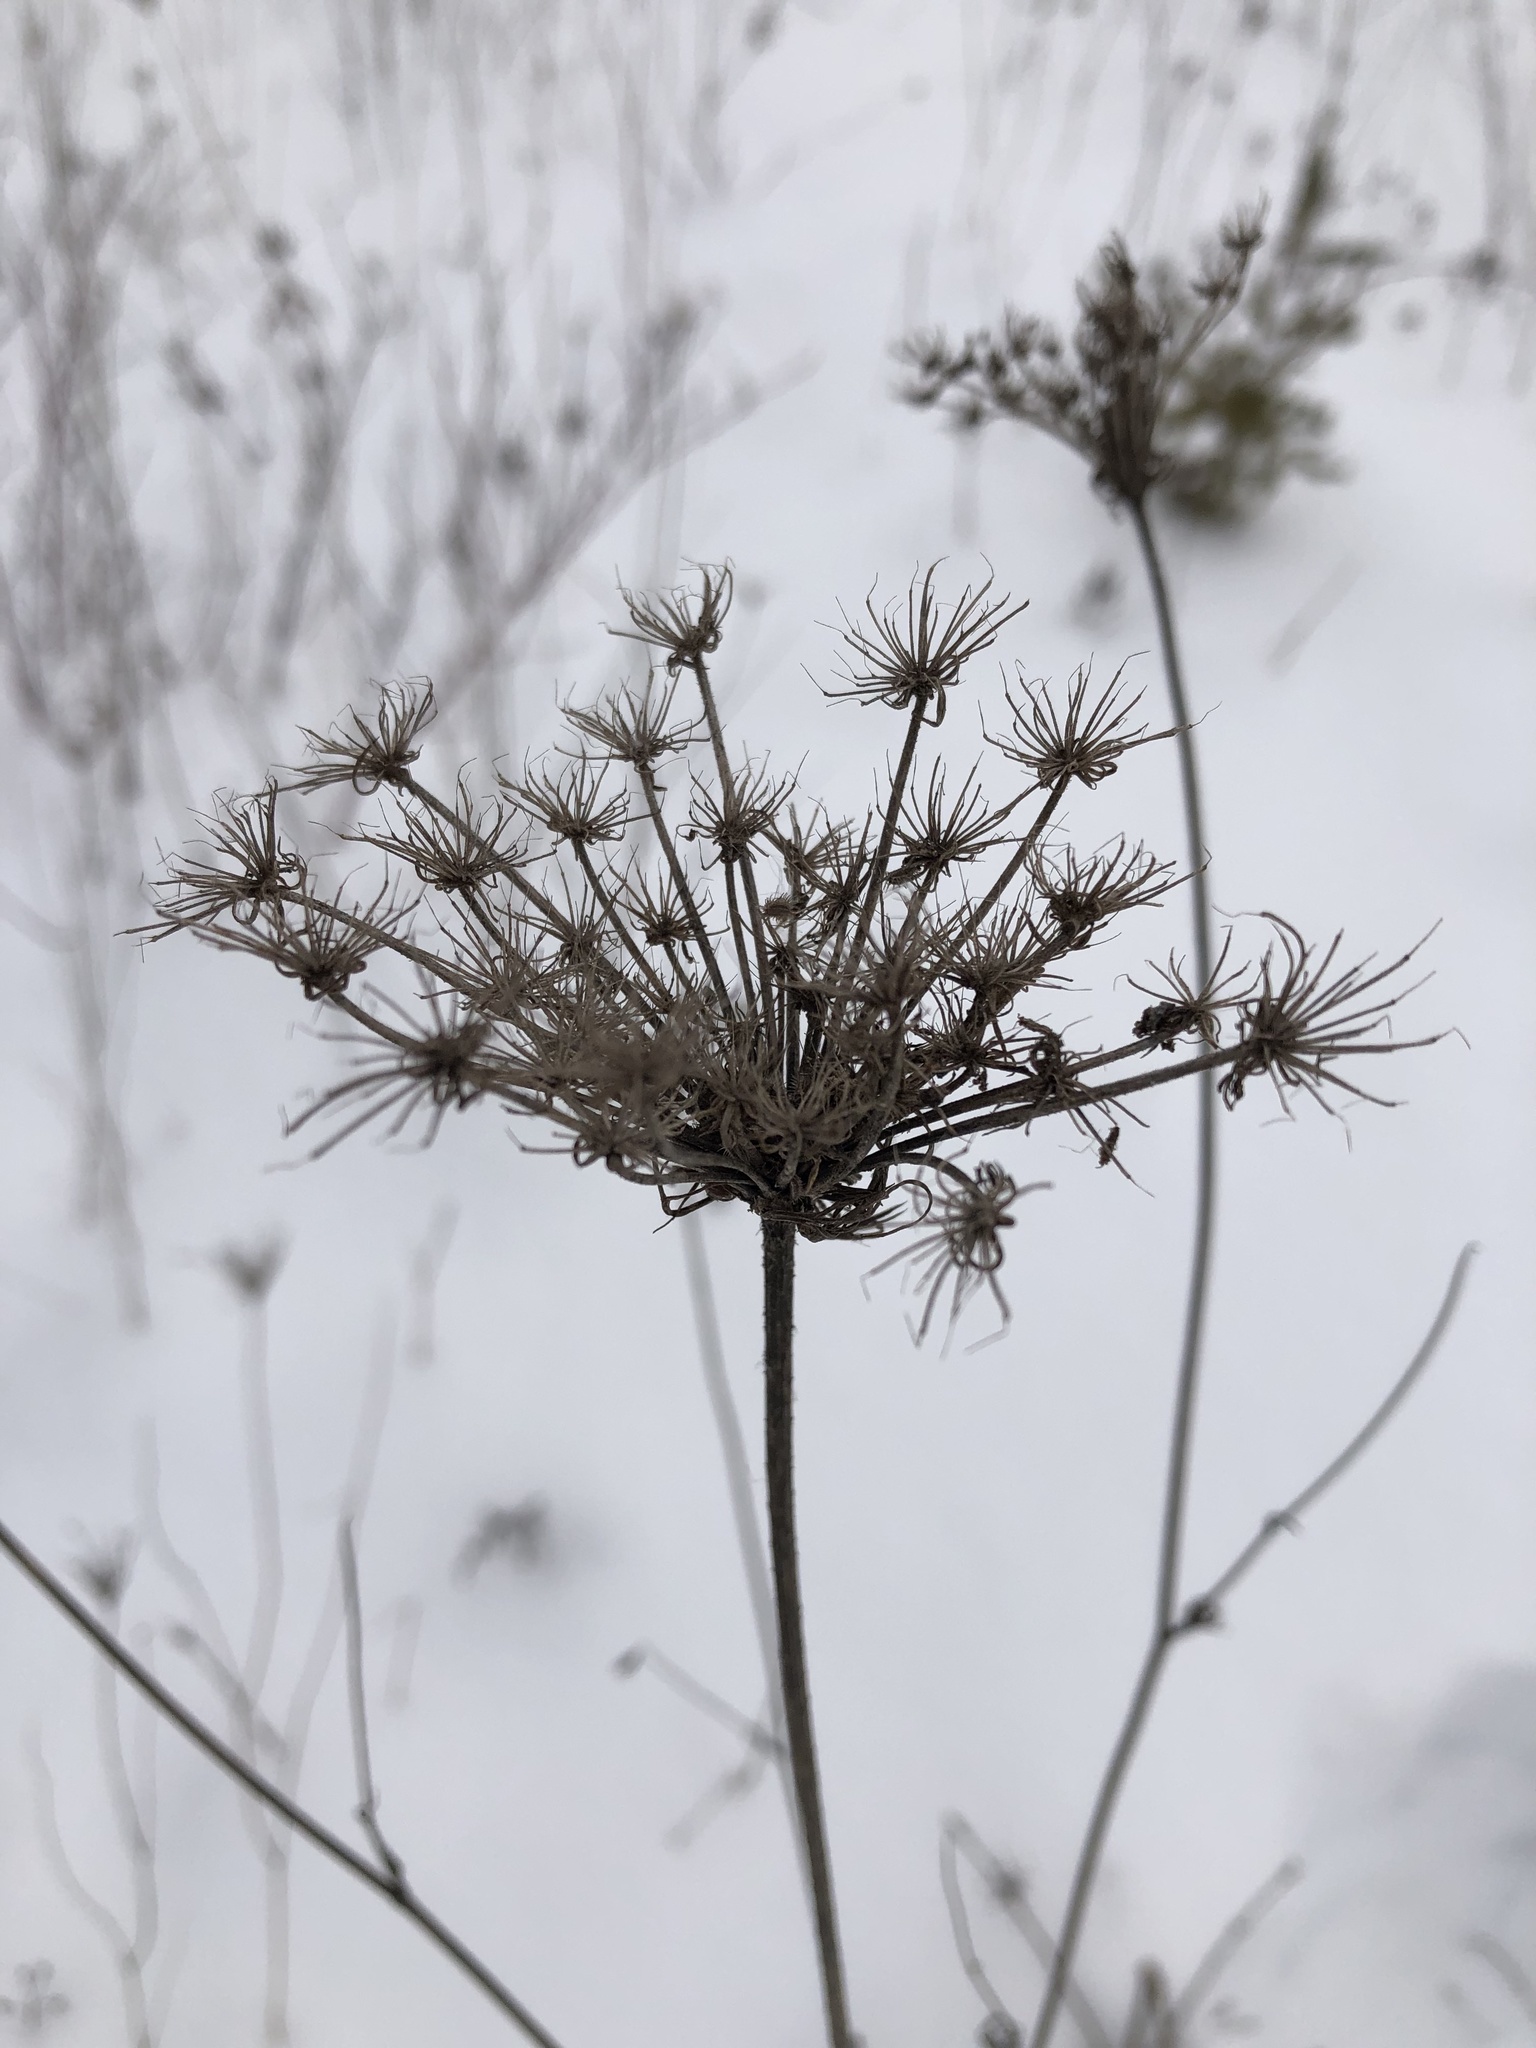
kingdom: Plantae
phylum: Tracheophyta
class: Magnoliopsida
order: Apiales
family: Apiaceae
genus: Daucus
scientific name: Daucus carota
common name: Wild carrot
